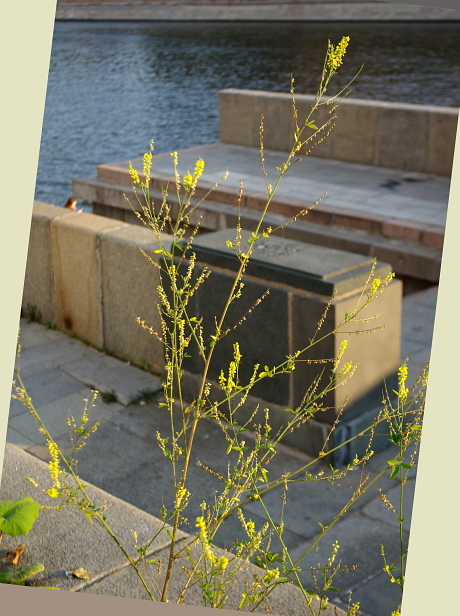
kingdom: Plantae
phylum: Tracheophyta
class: Magnoliopsida
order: Fabales
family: Fabaceae
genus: Melilotus
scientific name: Melilotus officinalis
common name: Sweetclover
